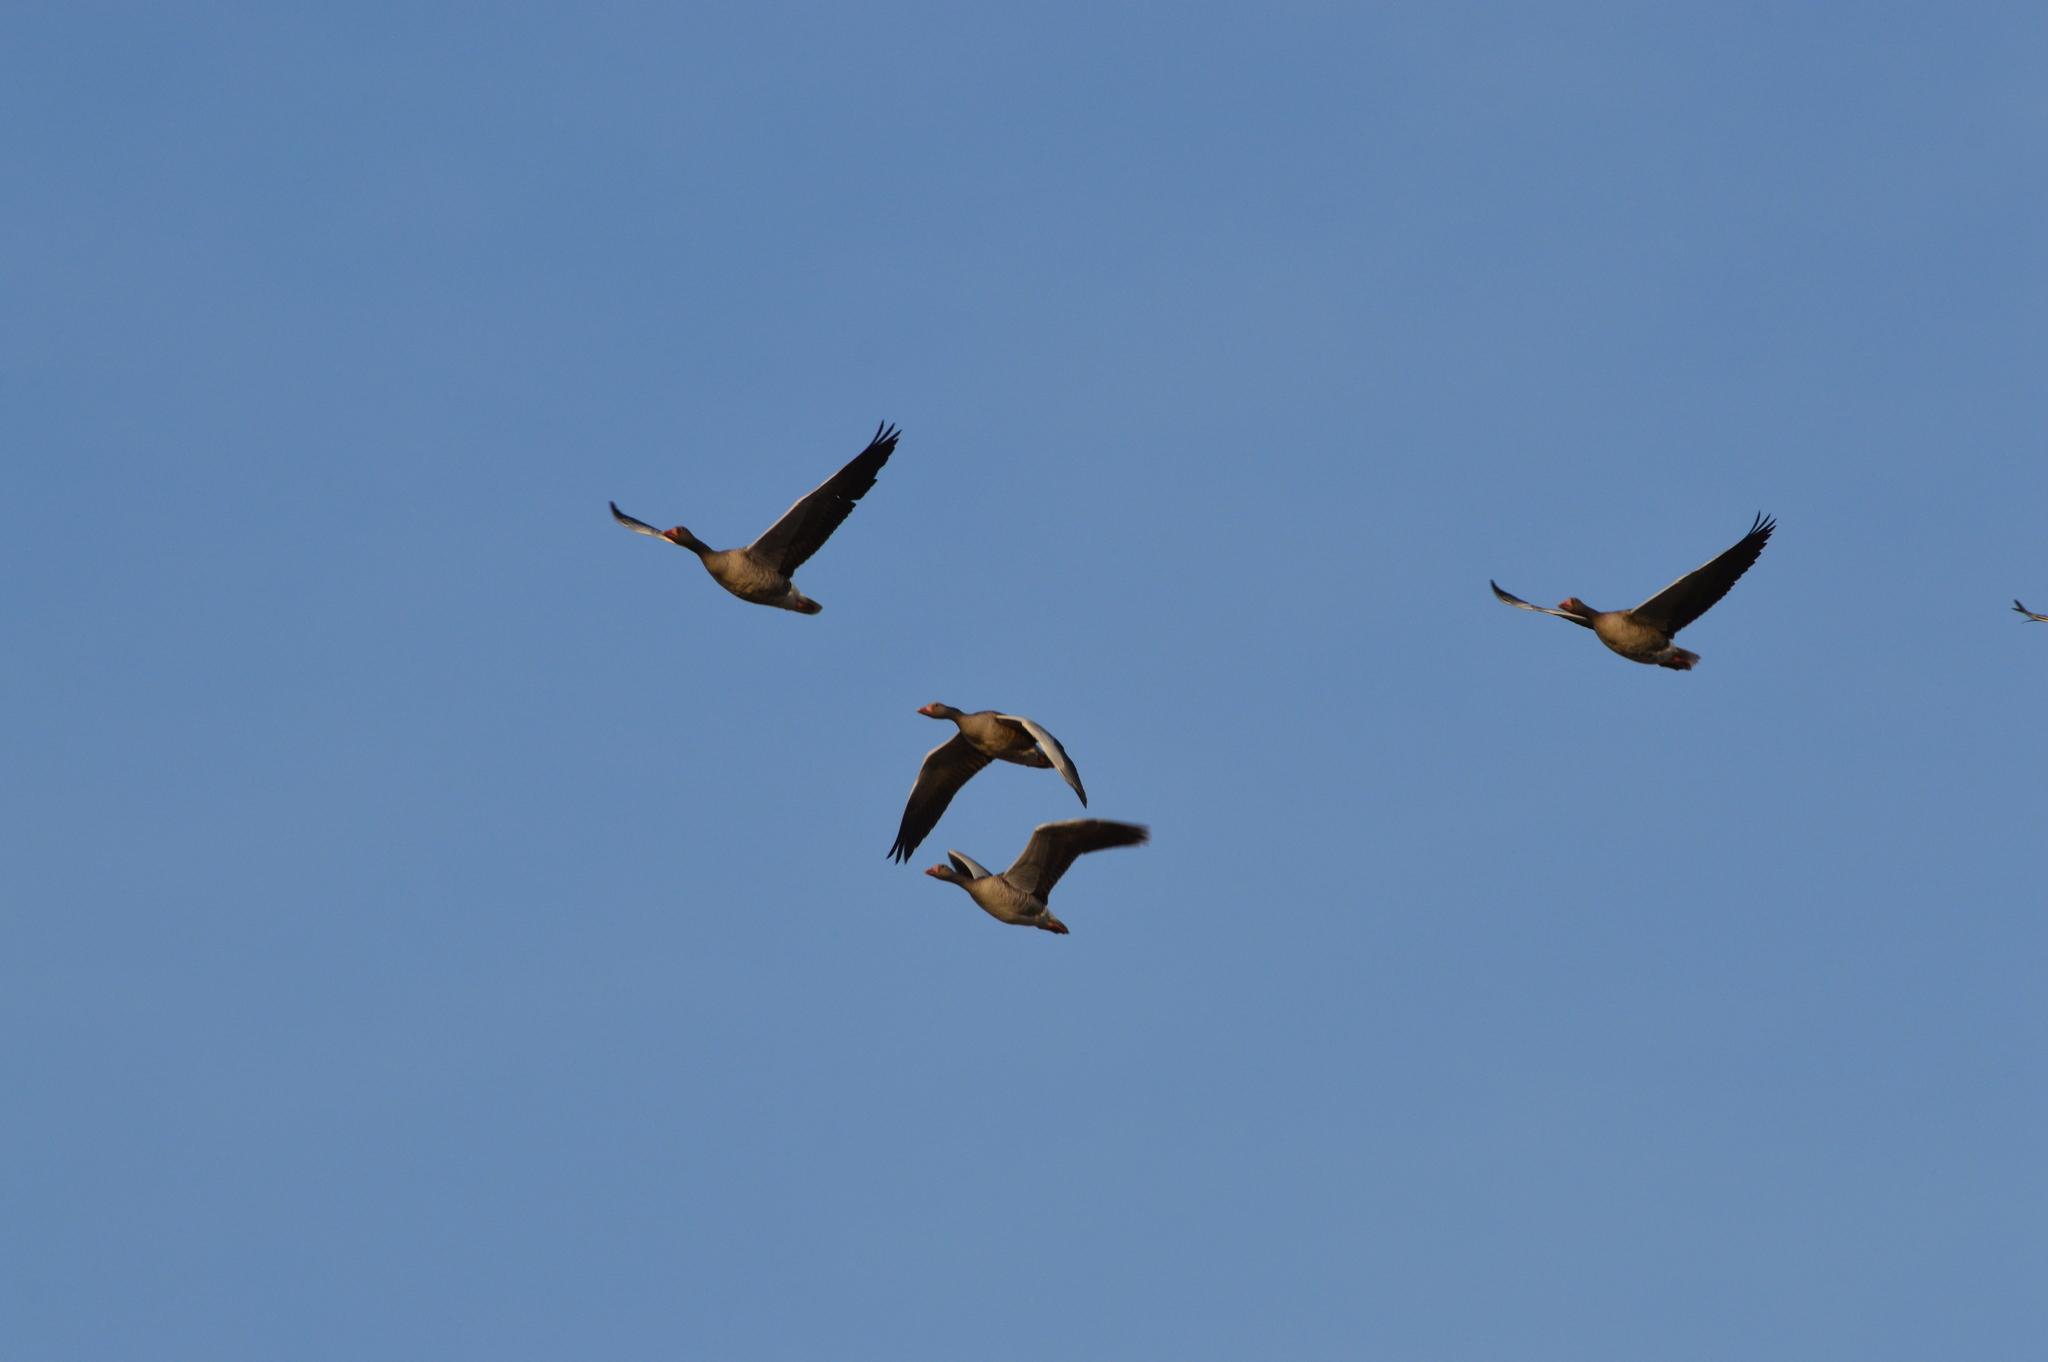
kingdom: Animalia
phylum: Chordata
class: Aves
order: Anseriformes
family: Anatidae
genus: Anser
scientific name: Anser anser
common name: Greylag goose
